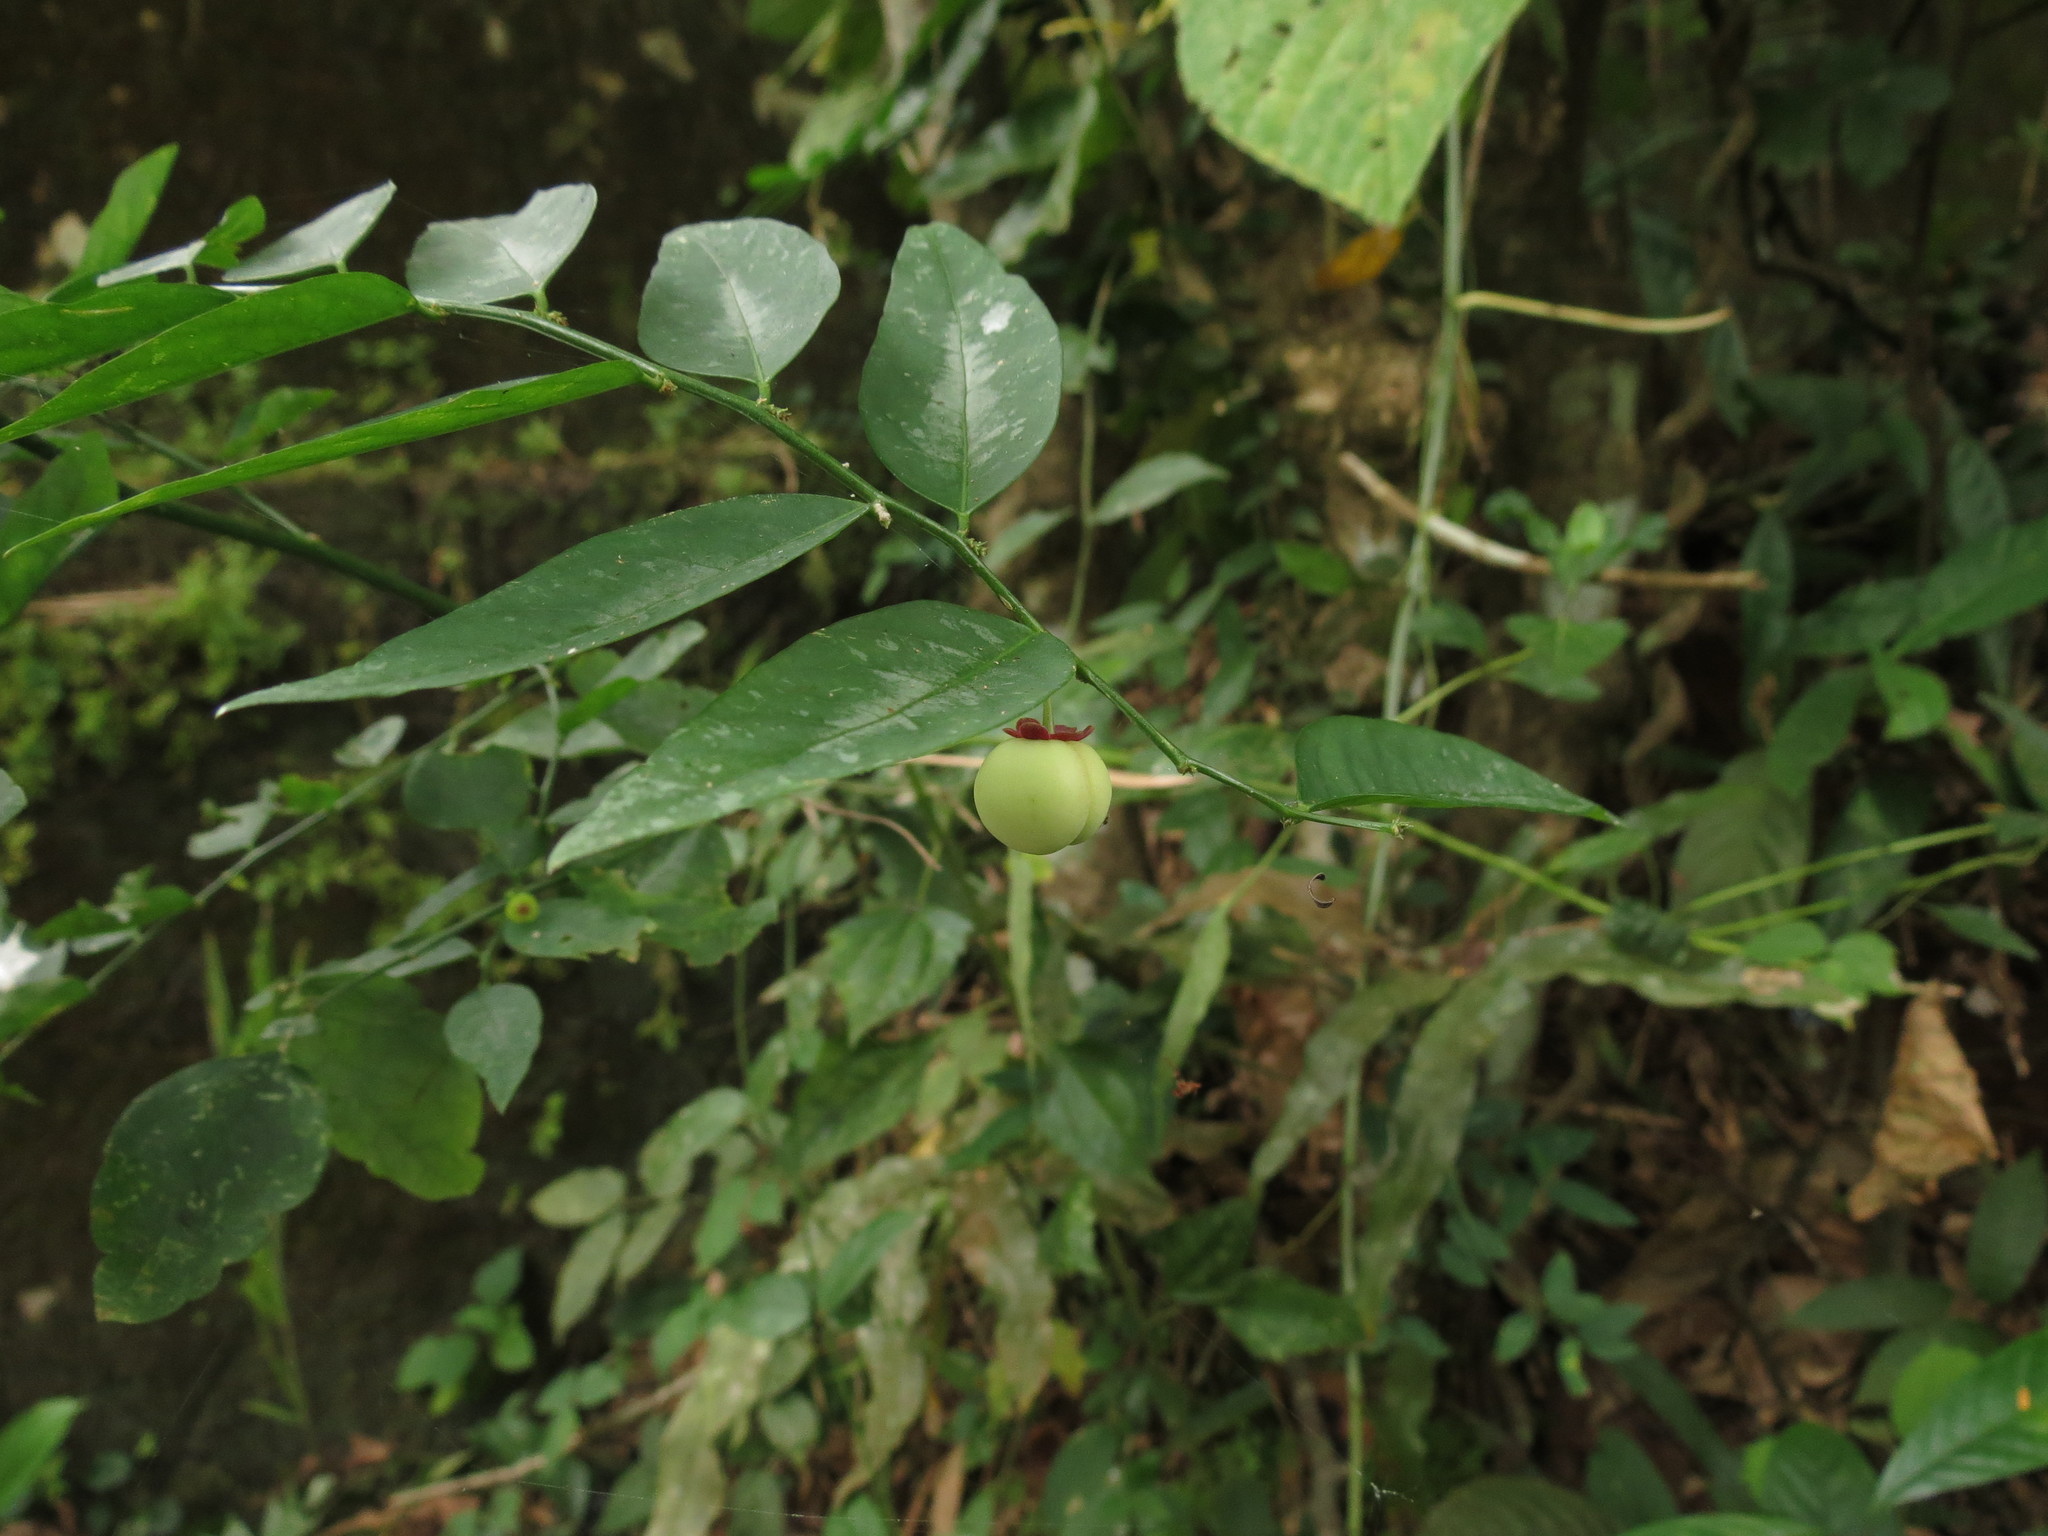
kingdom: Plantae
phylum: Tracheophyta
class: Magnoliopsida
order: Malpighiales
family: Phyllanthaceae
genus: Breynia
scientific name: Breynia androgyna
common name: Star gooseberry
